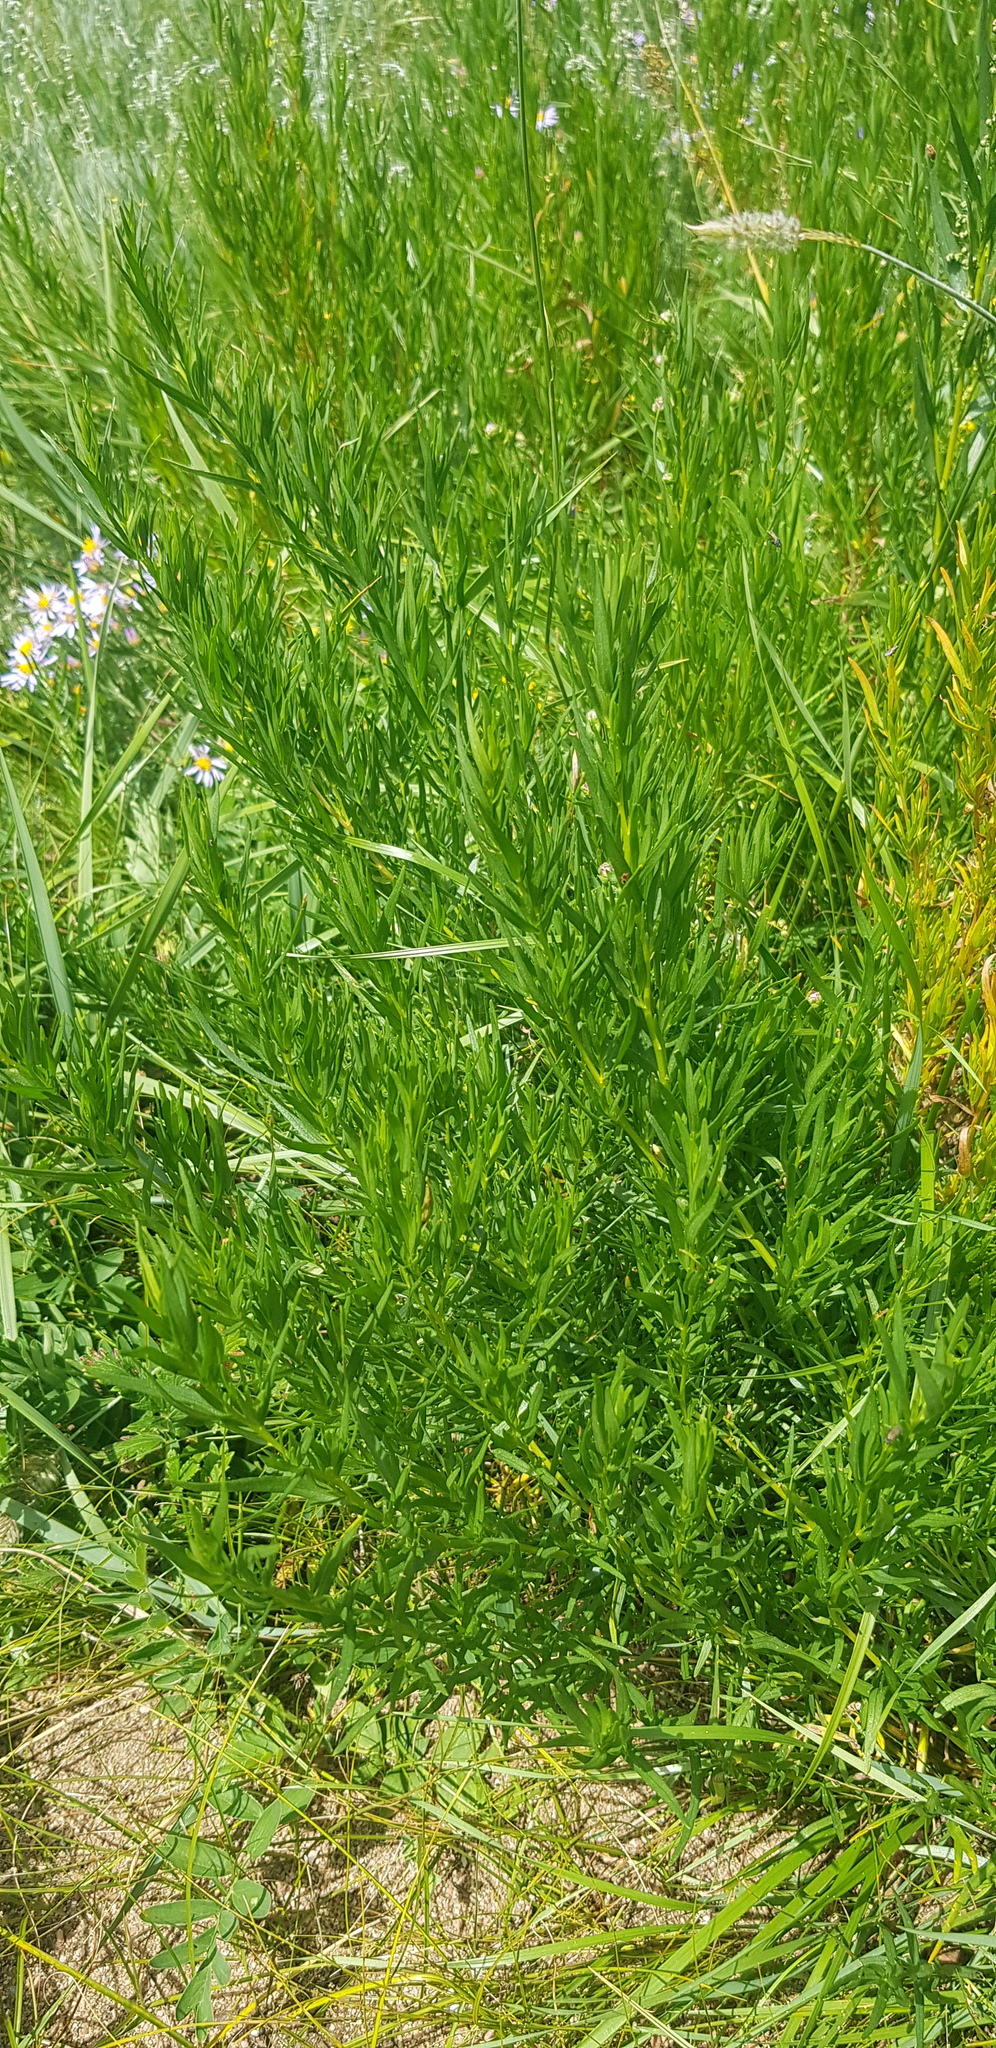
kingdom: Plantae
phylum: Tracheophyta
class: Magnoliopsida
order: Asterales
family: Asteraceae
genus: Artemisia
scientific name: Artemisia dracunculus
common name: Tarragon
